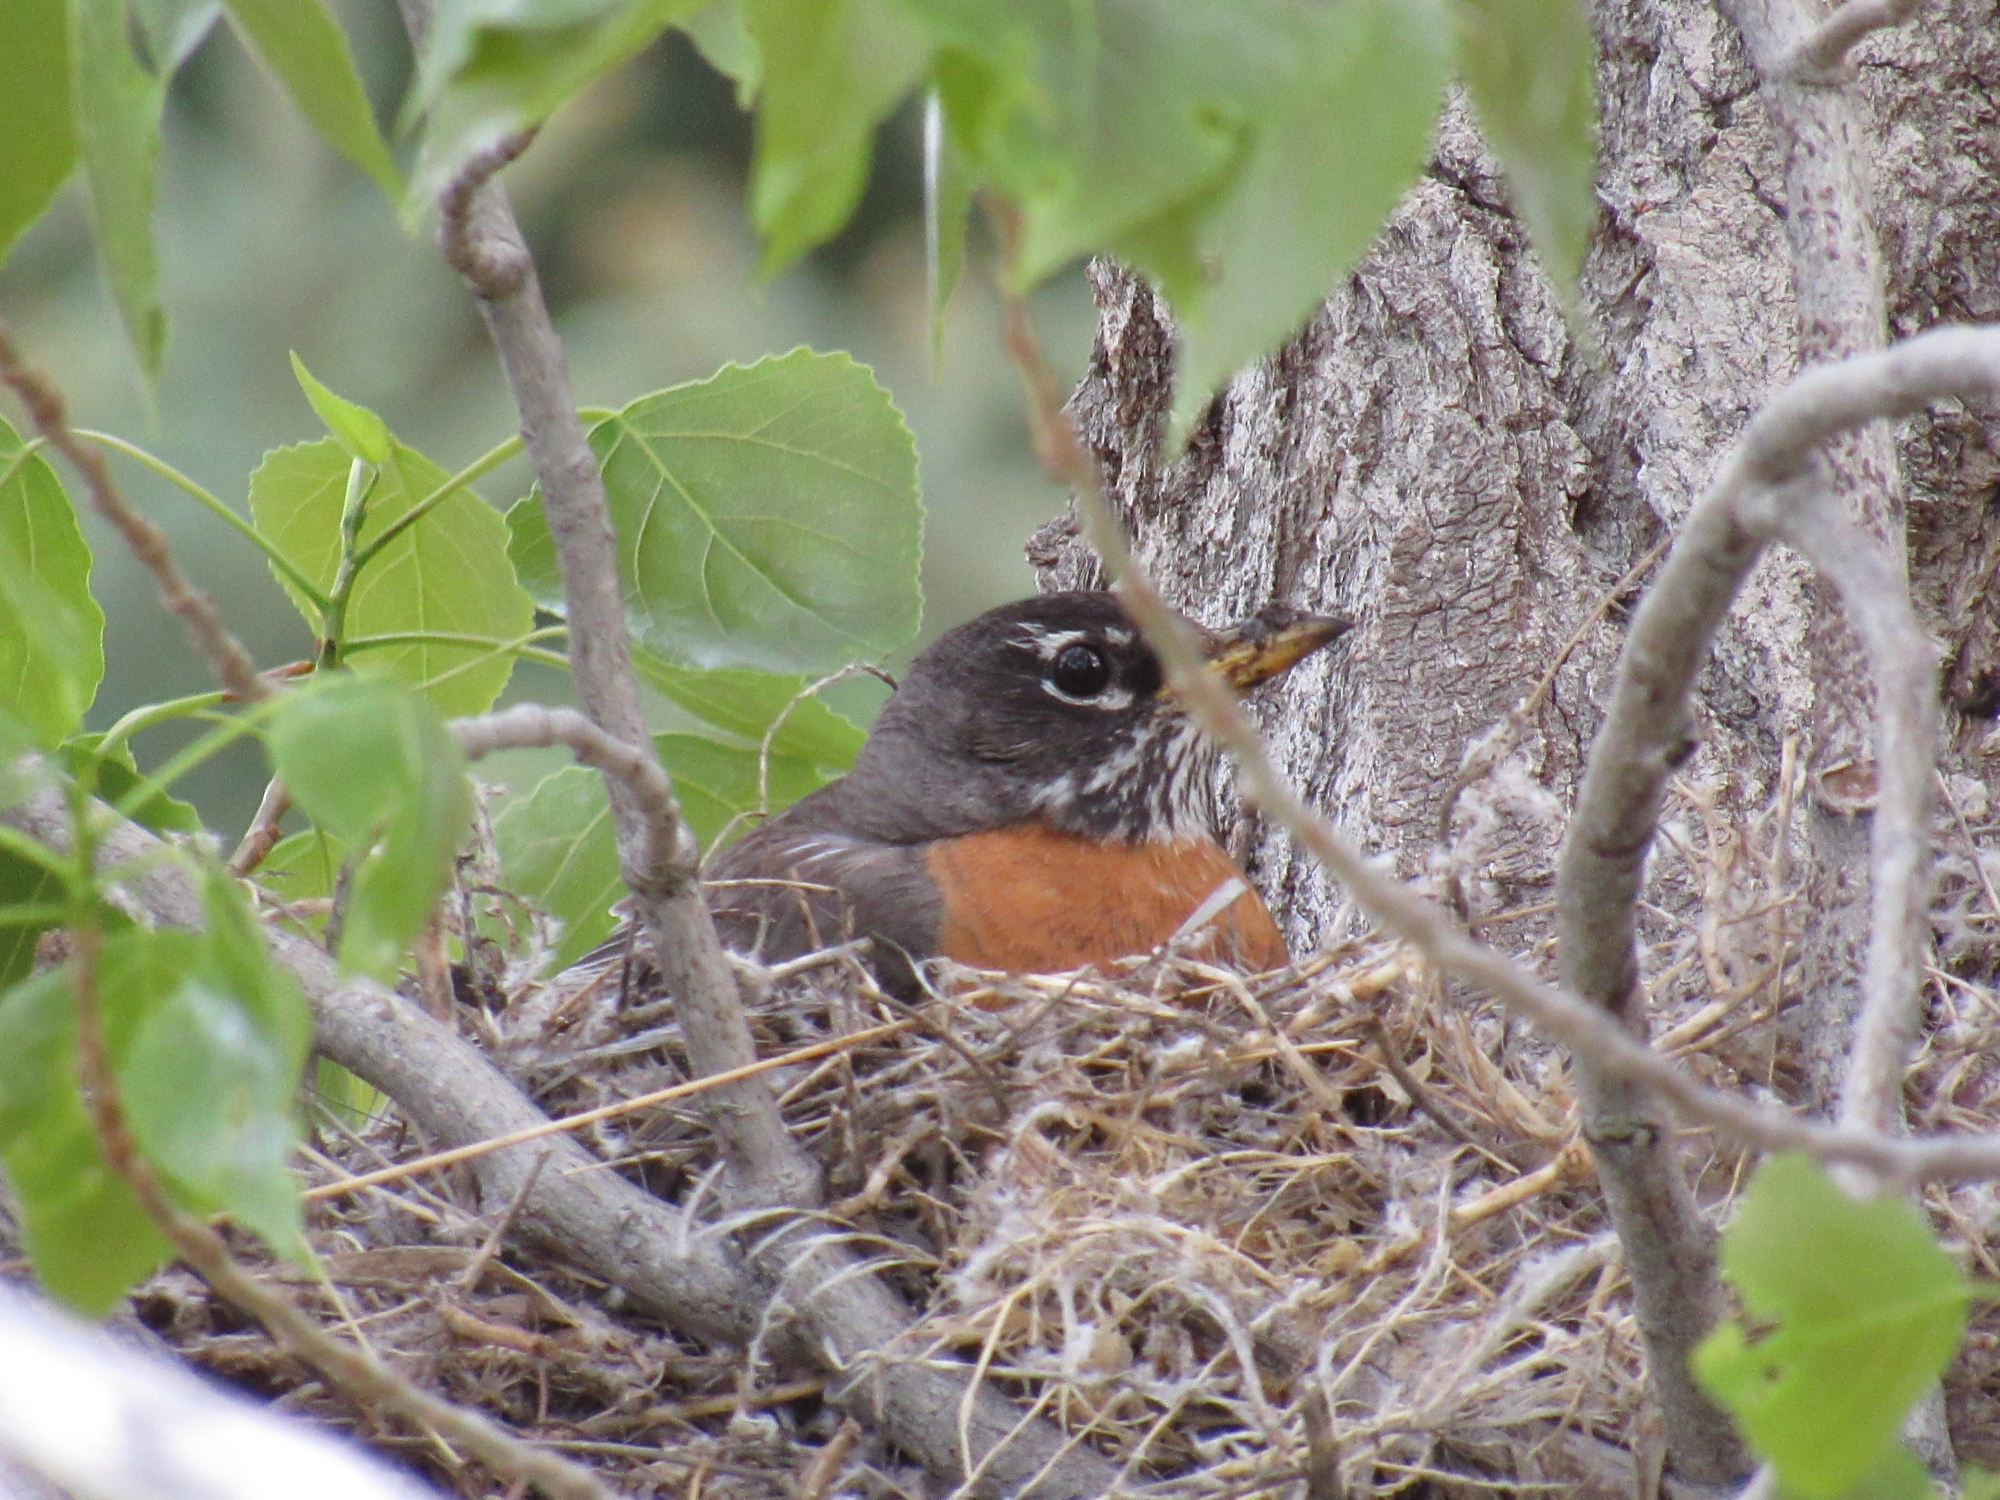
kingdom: Animalia
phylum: Chordata
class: Aves
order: Passeriformes
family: Turdidae
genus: Turdus
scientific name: Turdus migratorius
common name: American robin
